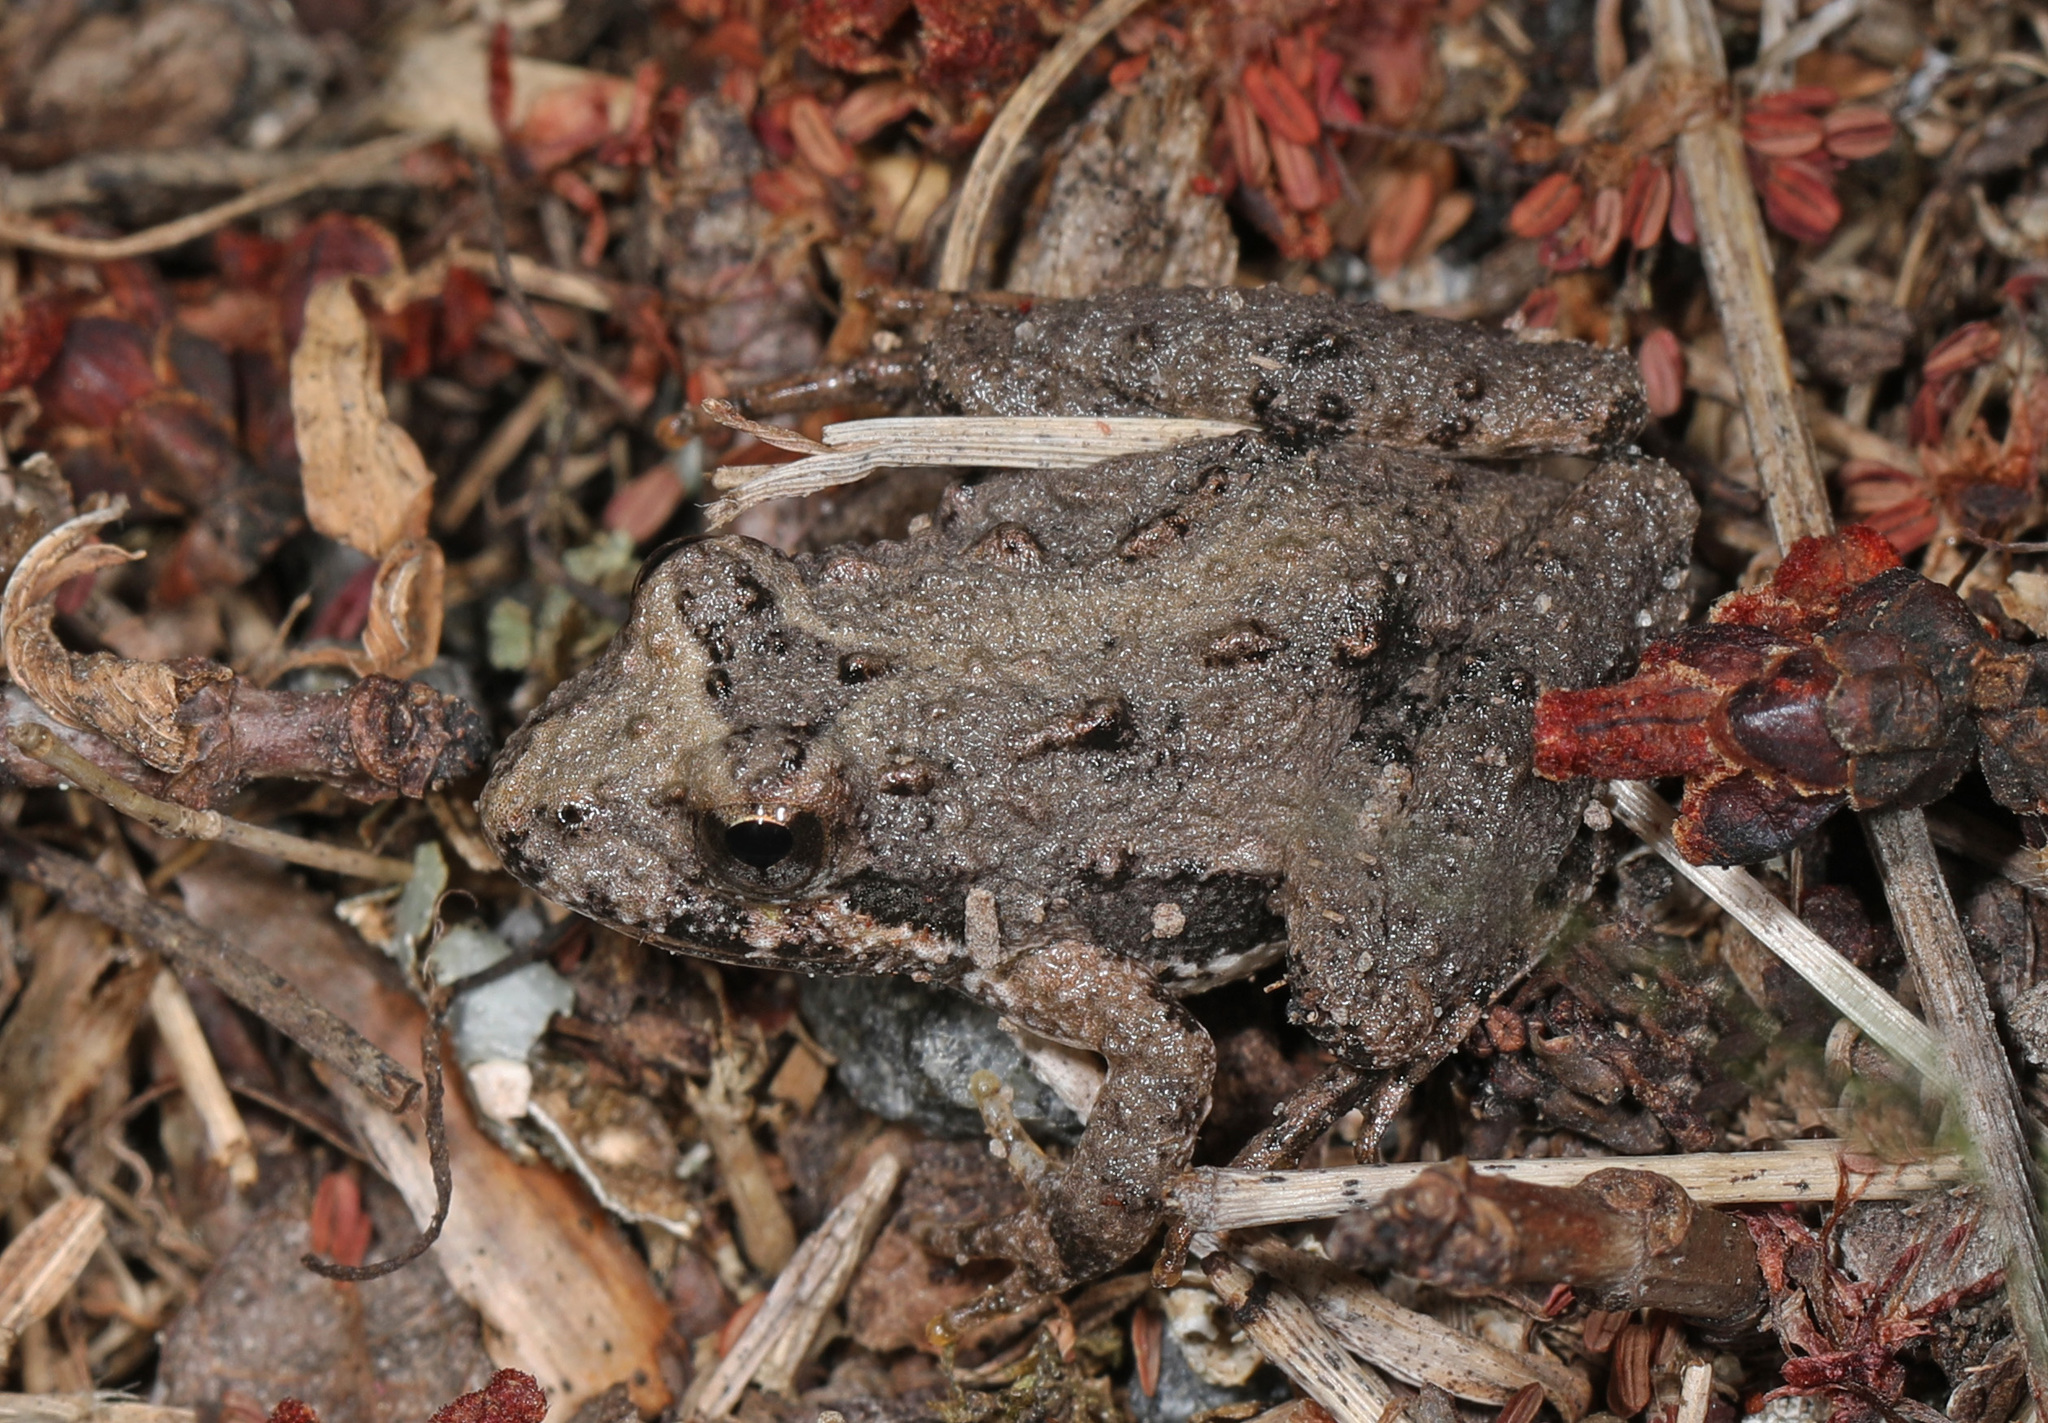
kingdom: Animalia
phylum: Chordata
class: Amphibia
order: Anura
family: Hylidae
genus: Acris
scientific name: Acris crepitans
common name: Northern cricket frog
